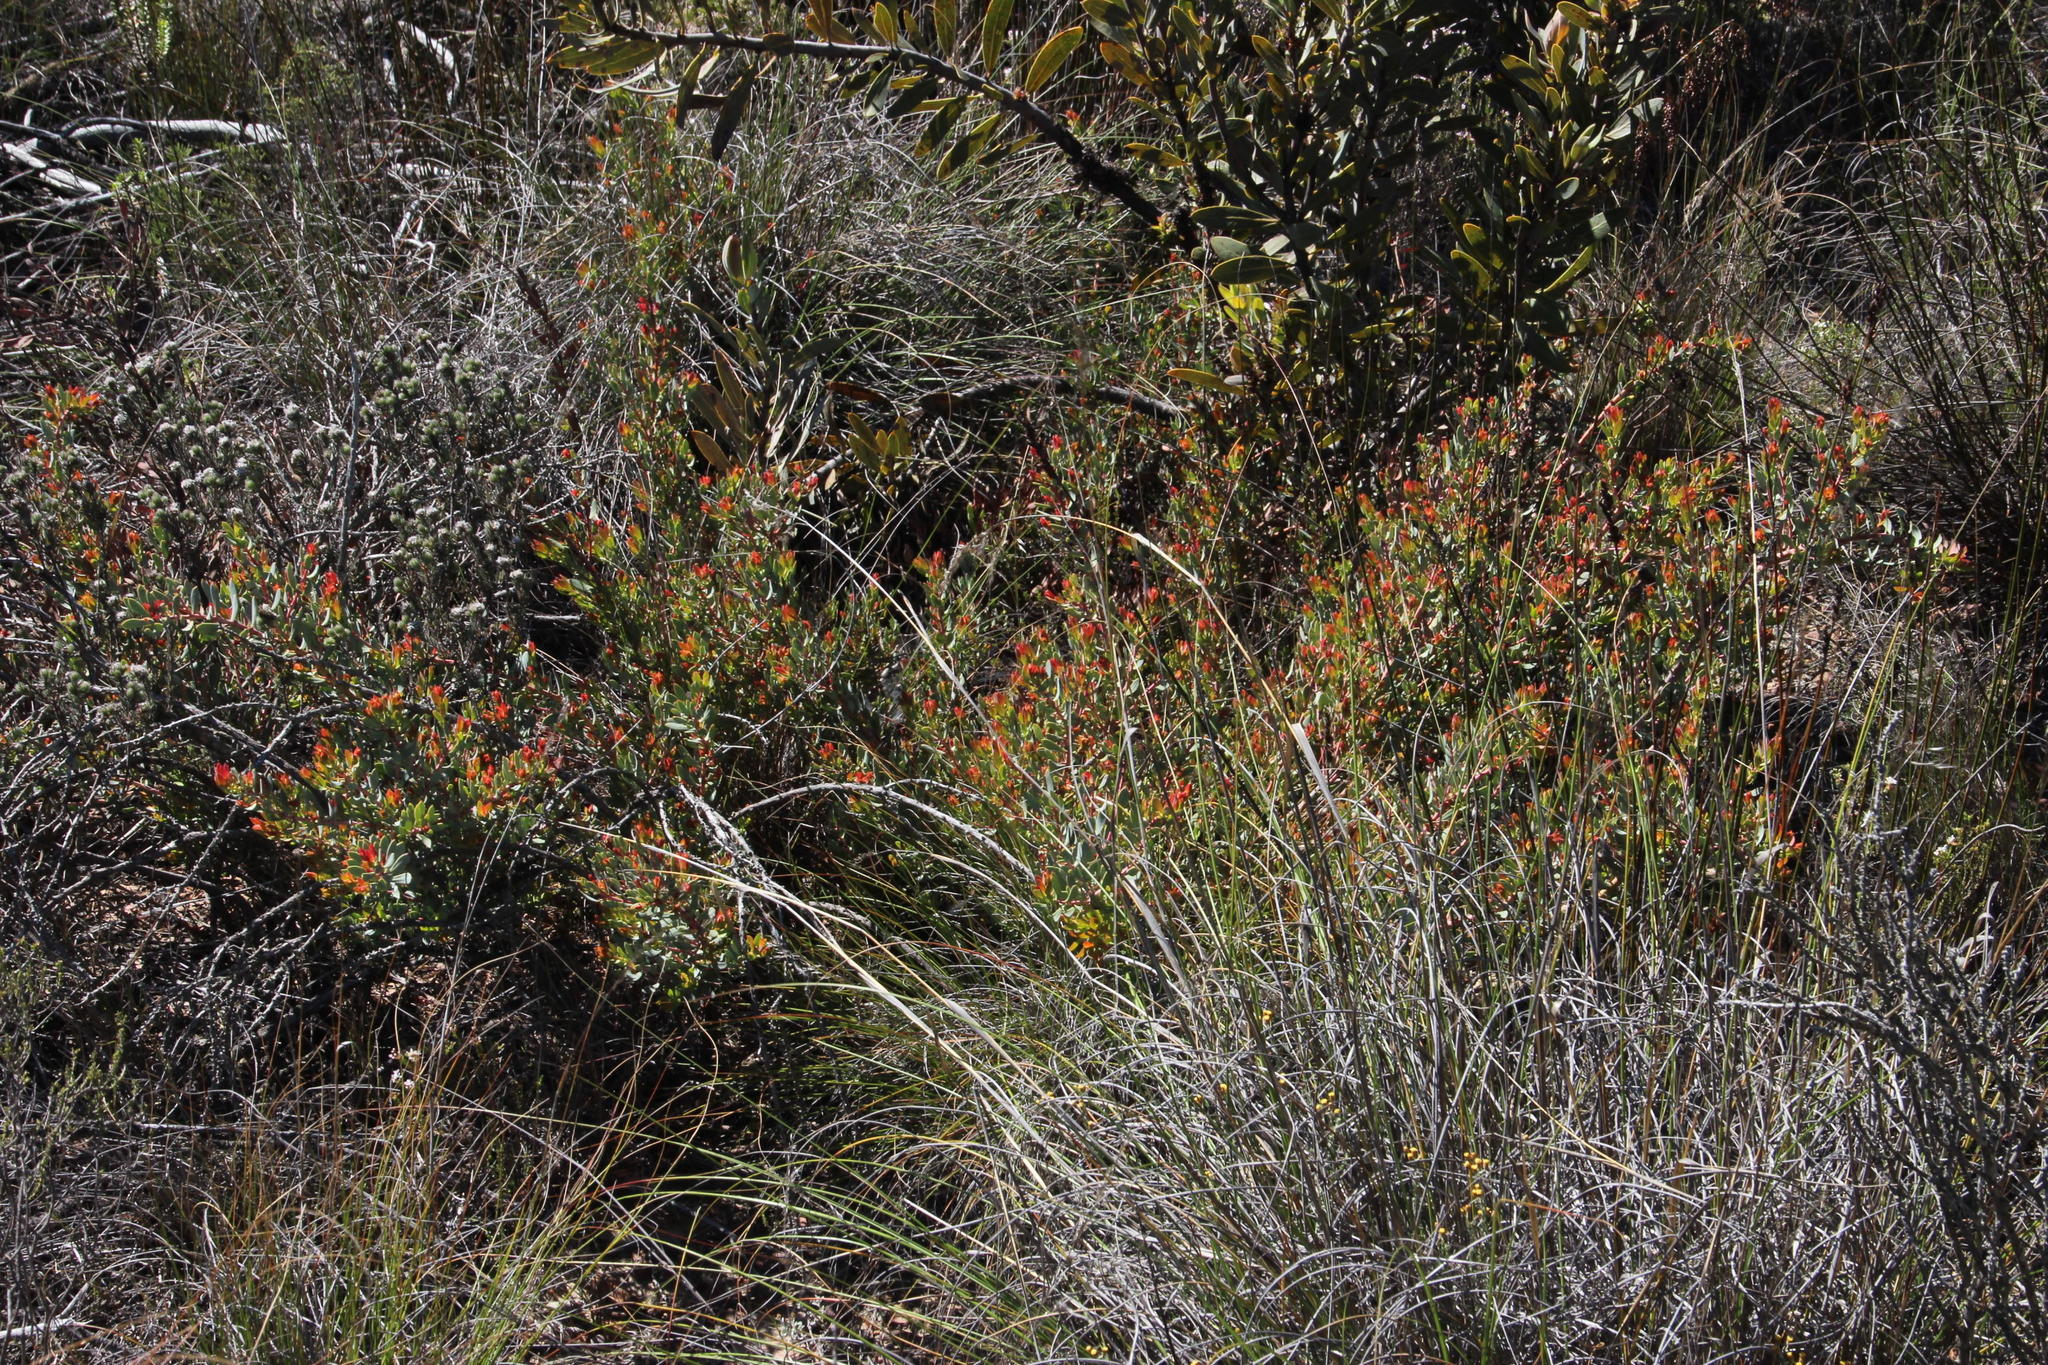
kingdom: Plantae
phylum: Tracheophyta
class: Magnoliopsida
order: Proteales
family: Proteaceae
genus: Protea
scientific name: Protea sulphurea
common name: Sulphur sugarbush
